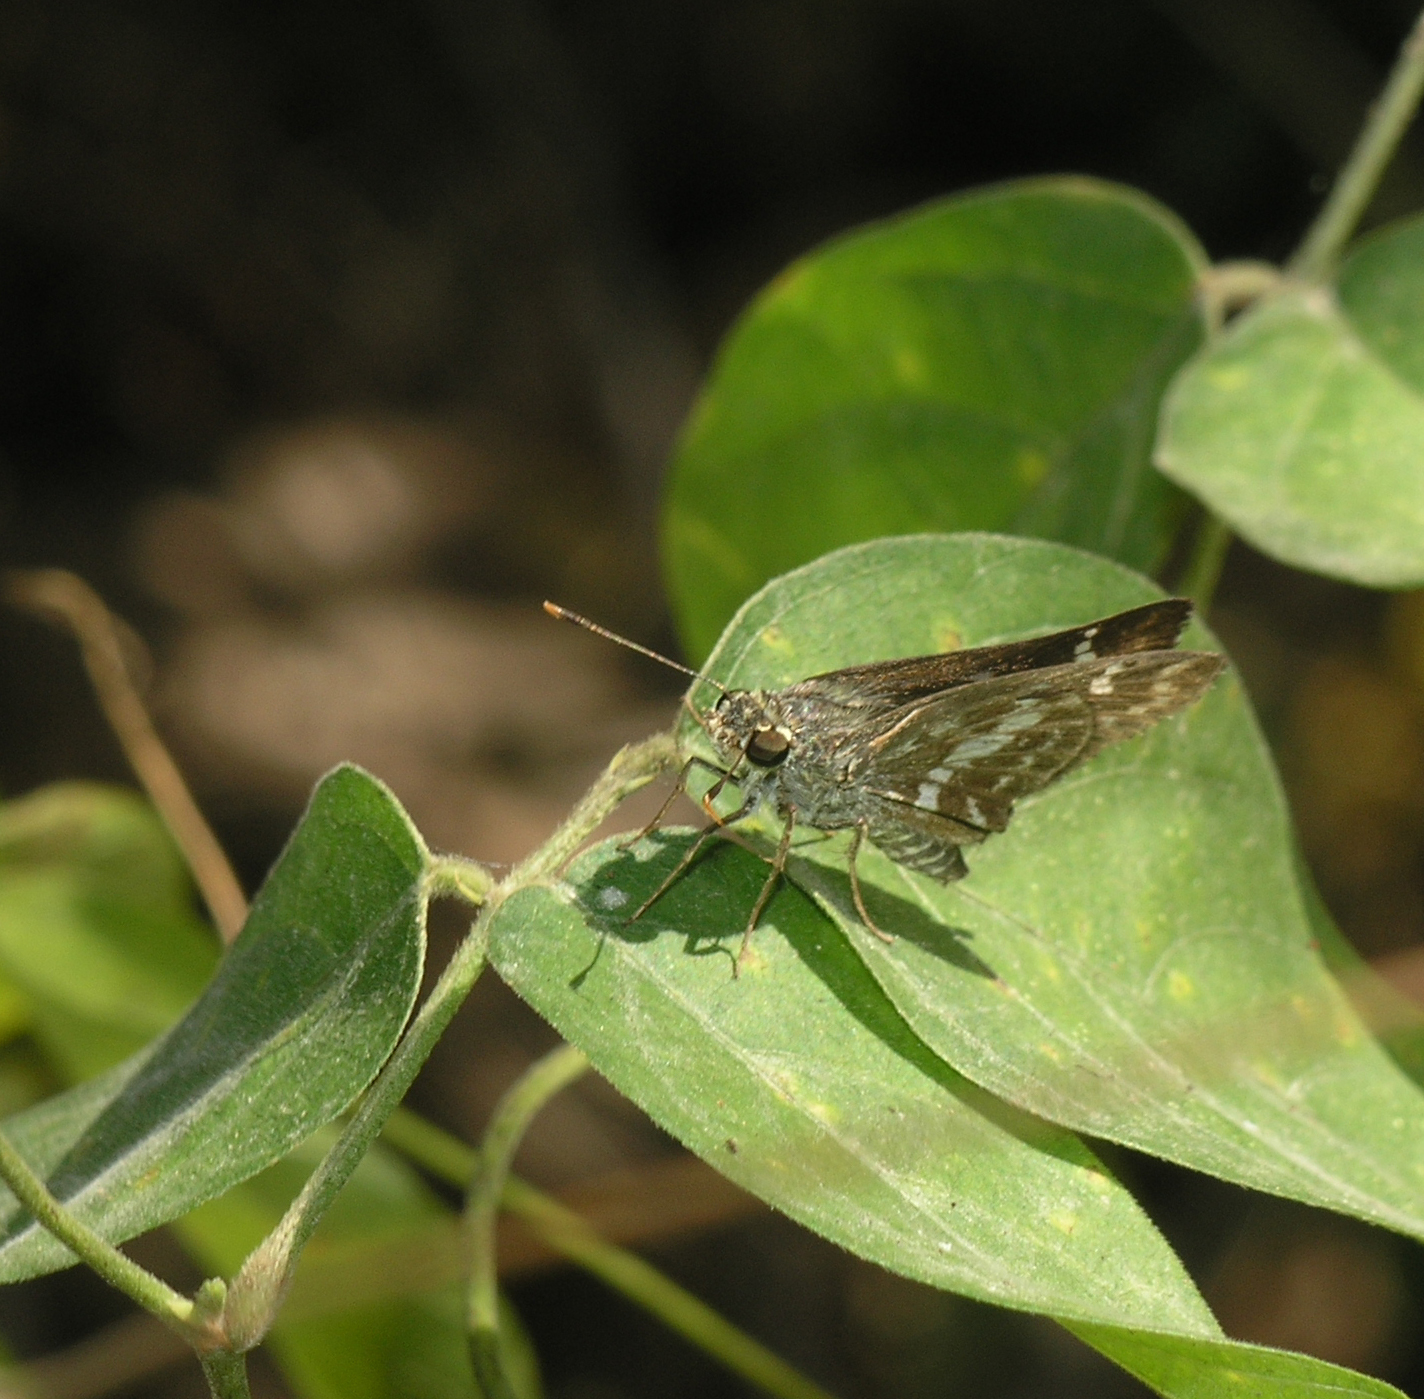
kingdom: Animalia
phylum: Arthropoda
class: Insecta
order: Lepidoptera
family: Hesperiidae
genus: Halpe
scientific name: Halpe porus
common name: Moore's ace
